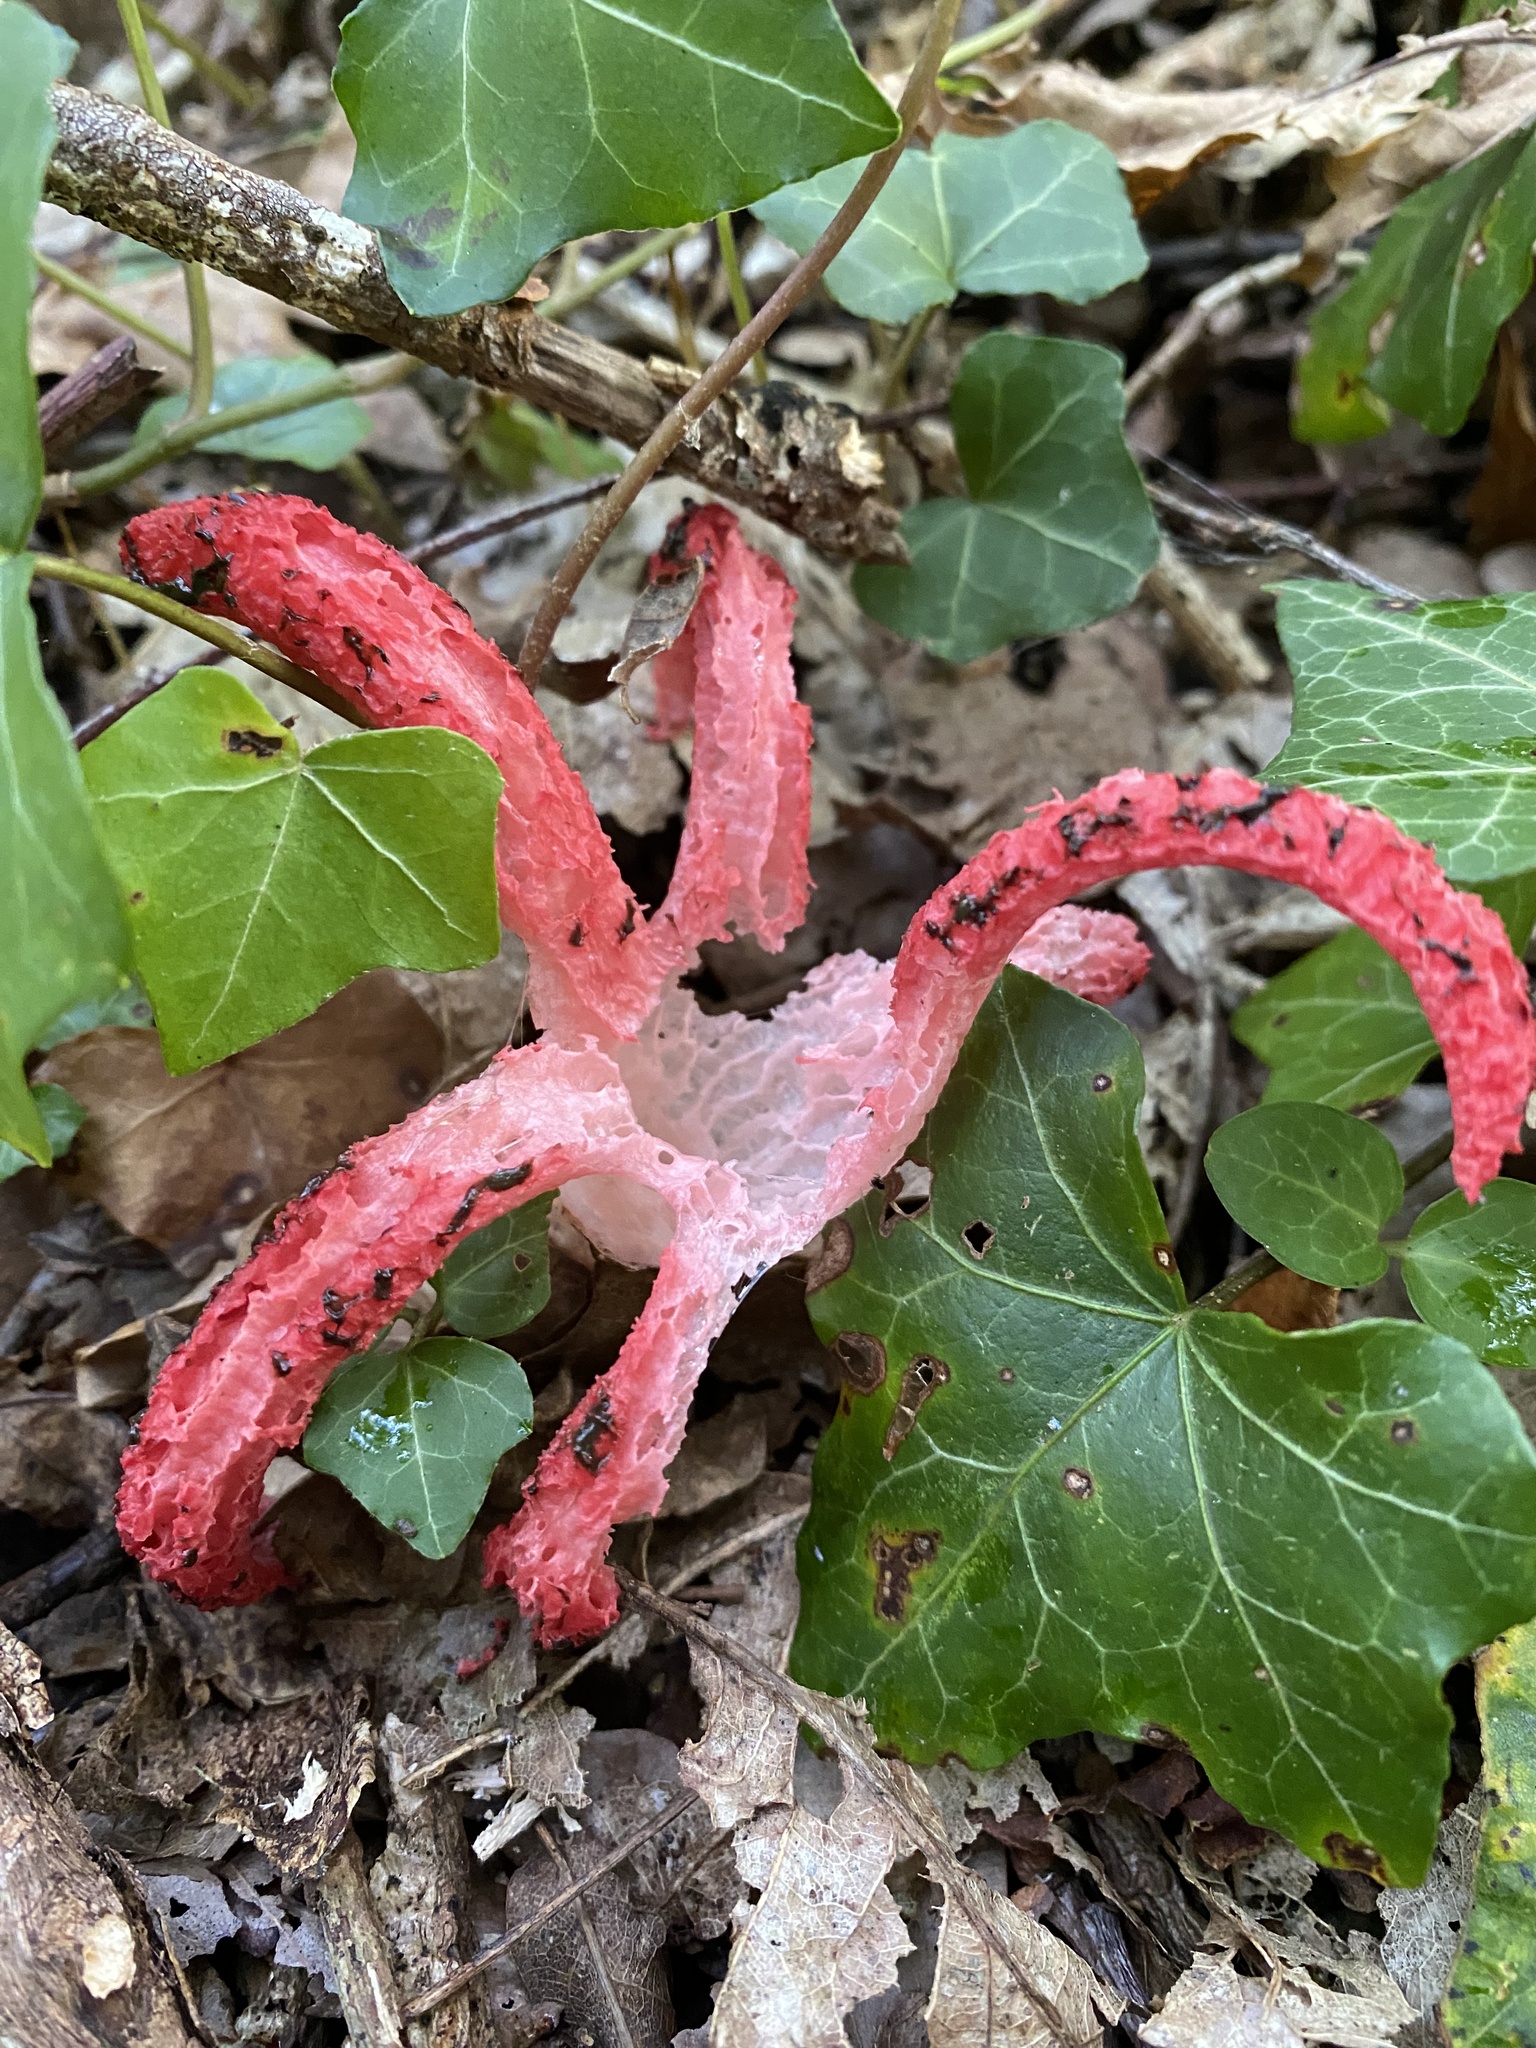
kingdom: Fungi
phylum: Basidiomycota
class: Agaricomycetes
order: Phallales
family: Phallaceae
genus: Clathrus
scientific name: Clathrus archeri
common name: Devil's fingers
